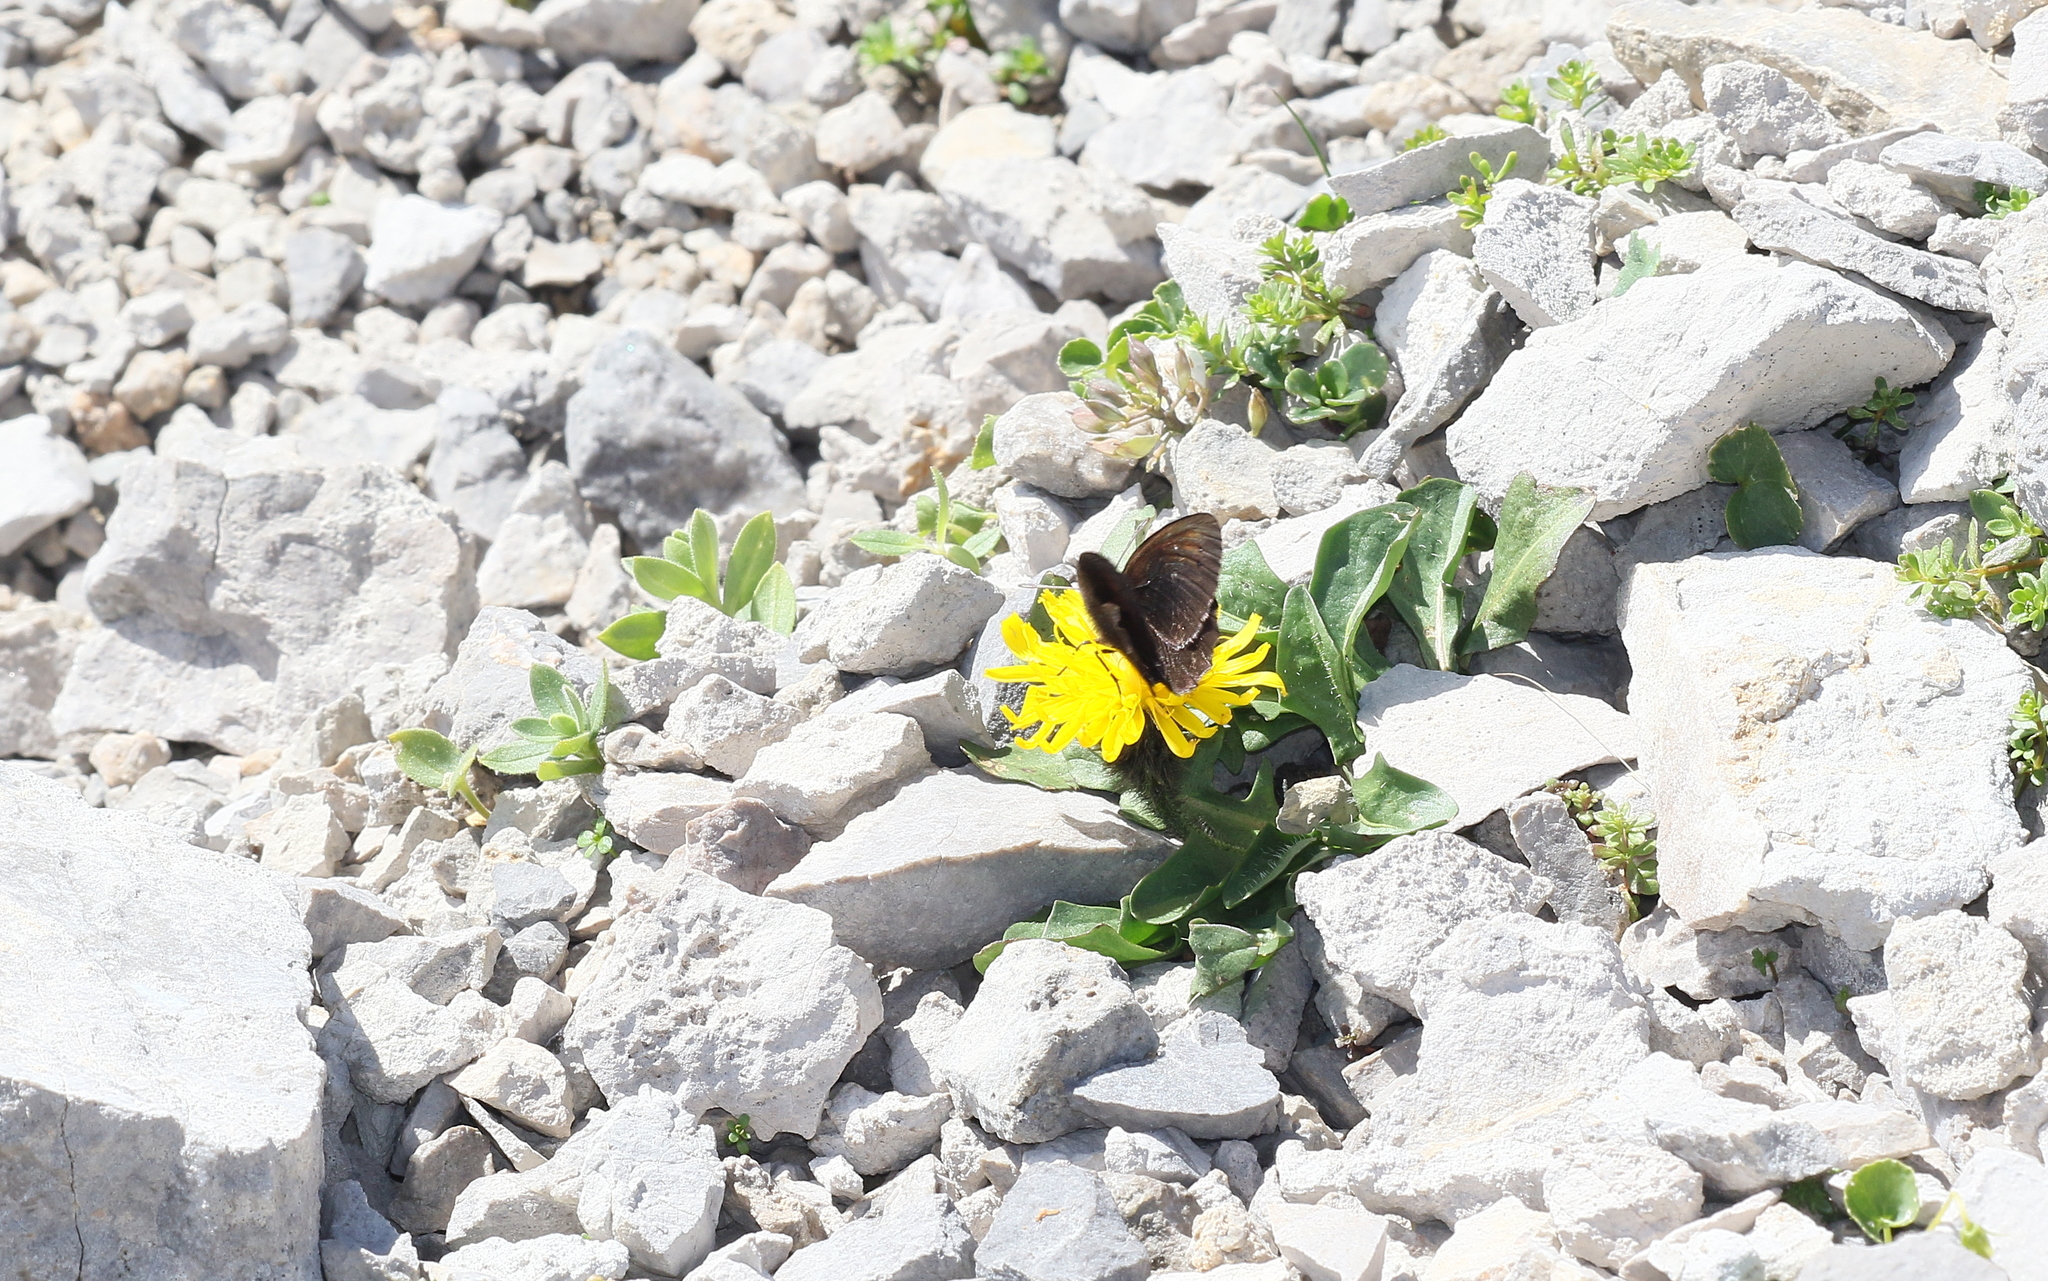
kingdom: Animalia
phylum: Arthropoda
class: Insecta
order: Lepidoptera
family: Nymphalidae
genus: Erebia
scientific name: Erebia pluto
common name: Sooty ringlet
